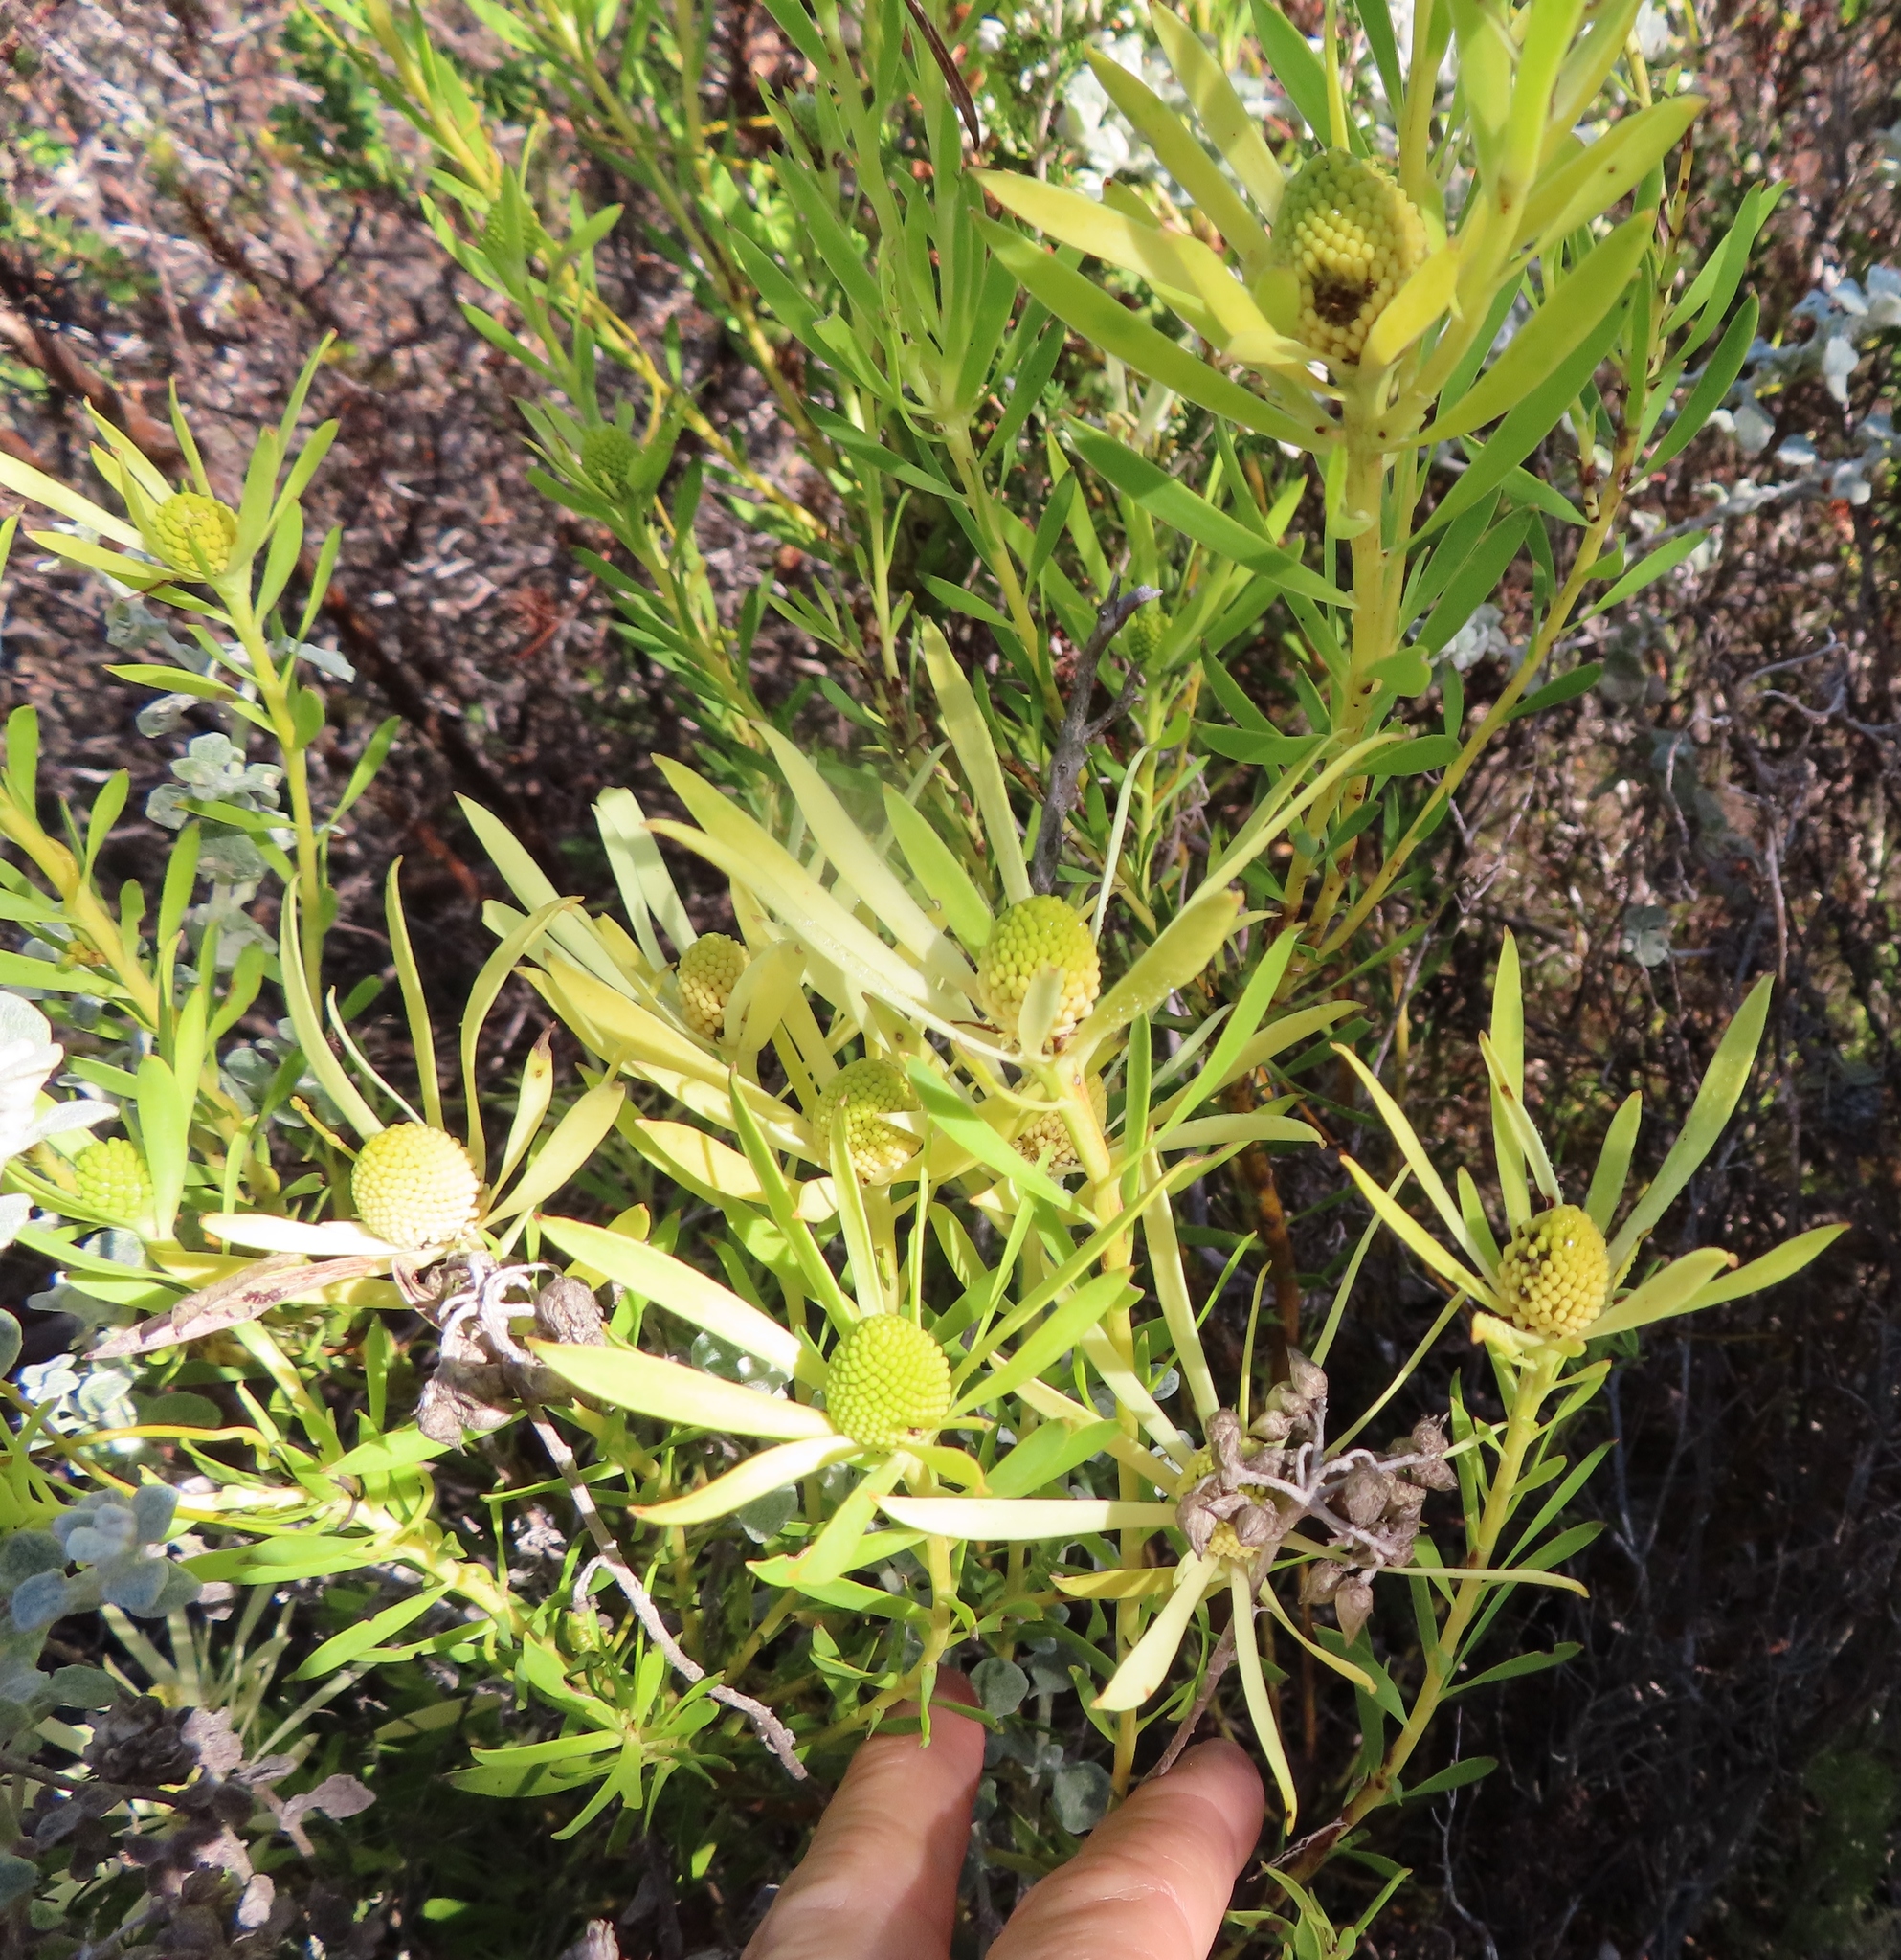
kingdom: Plantae
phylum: Tracheophyta
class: Magnoliopsida
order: Proteales
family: Proteaceae
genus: Leucadendron
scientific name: Leucadendron salignum
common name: Common sunshine conebush
